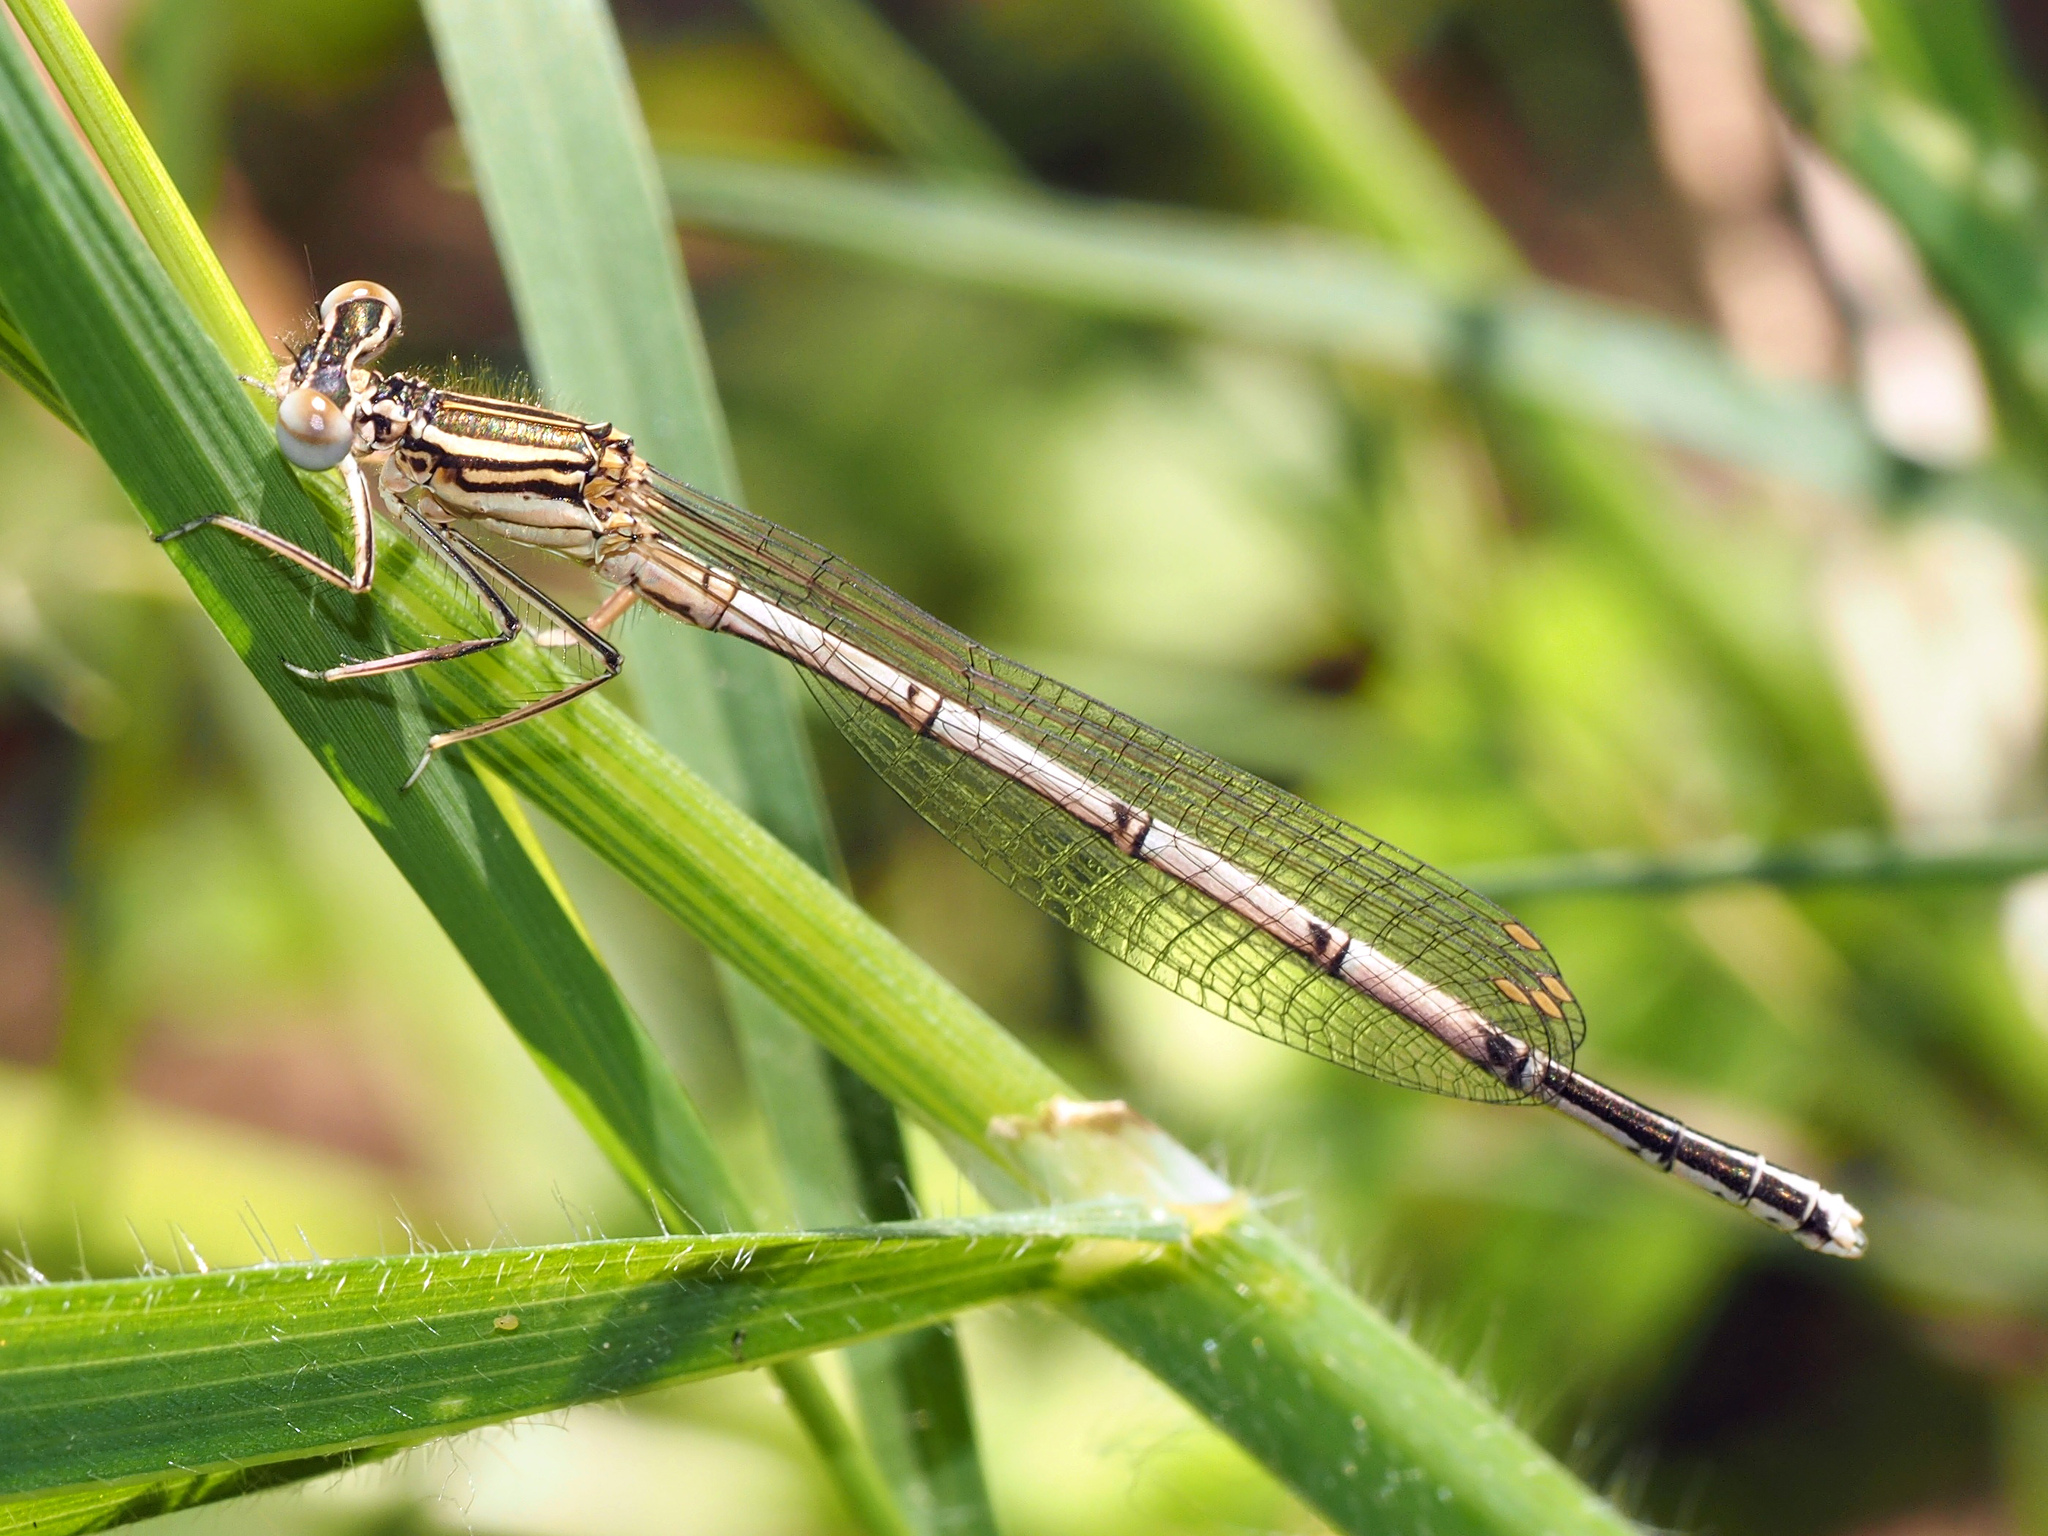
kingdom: Animalia
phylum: Arthropoda
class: Insecta
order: Odonata
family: Platycnemididae
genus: Platycnemis
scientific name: Platycnemis pennipes
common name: White-legged damselfly
